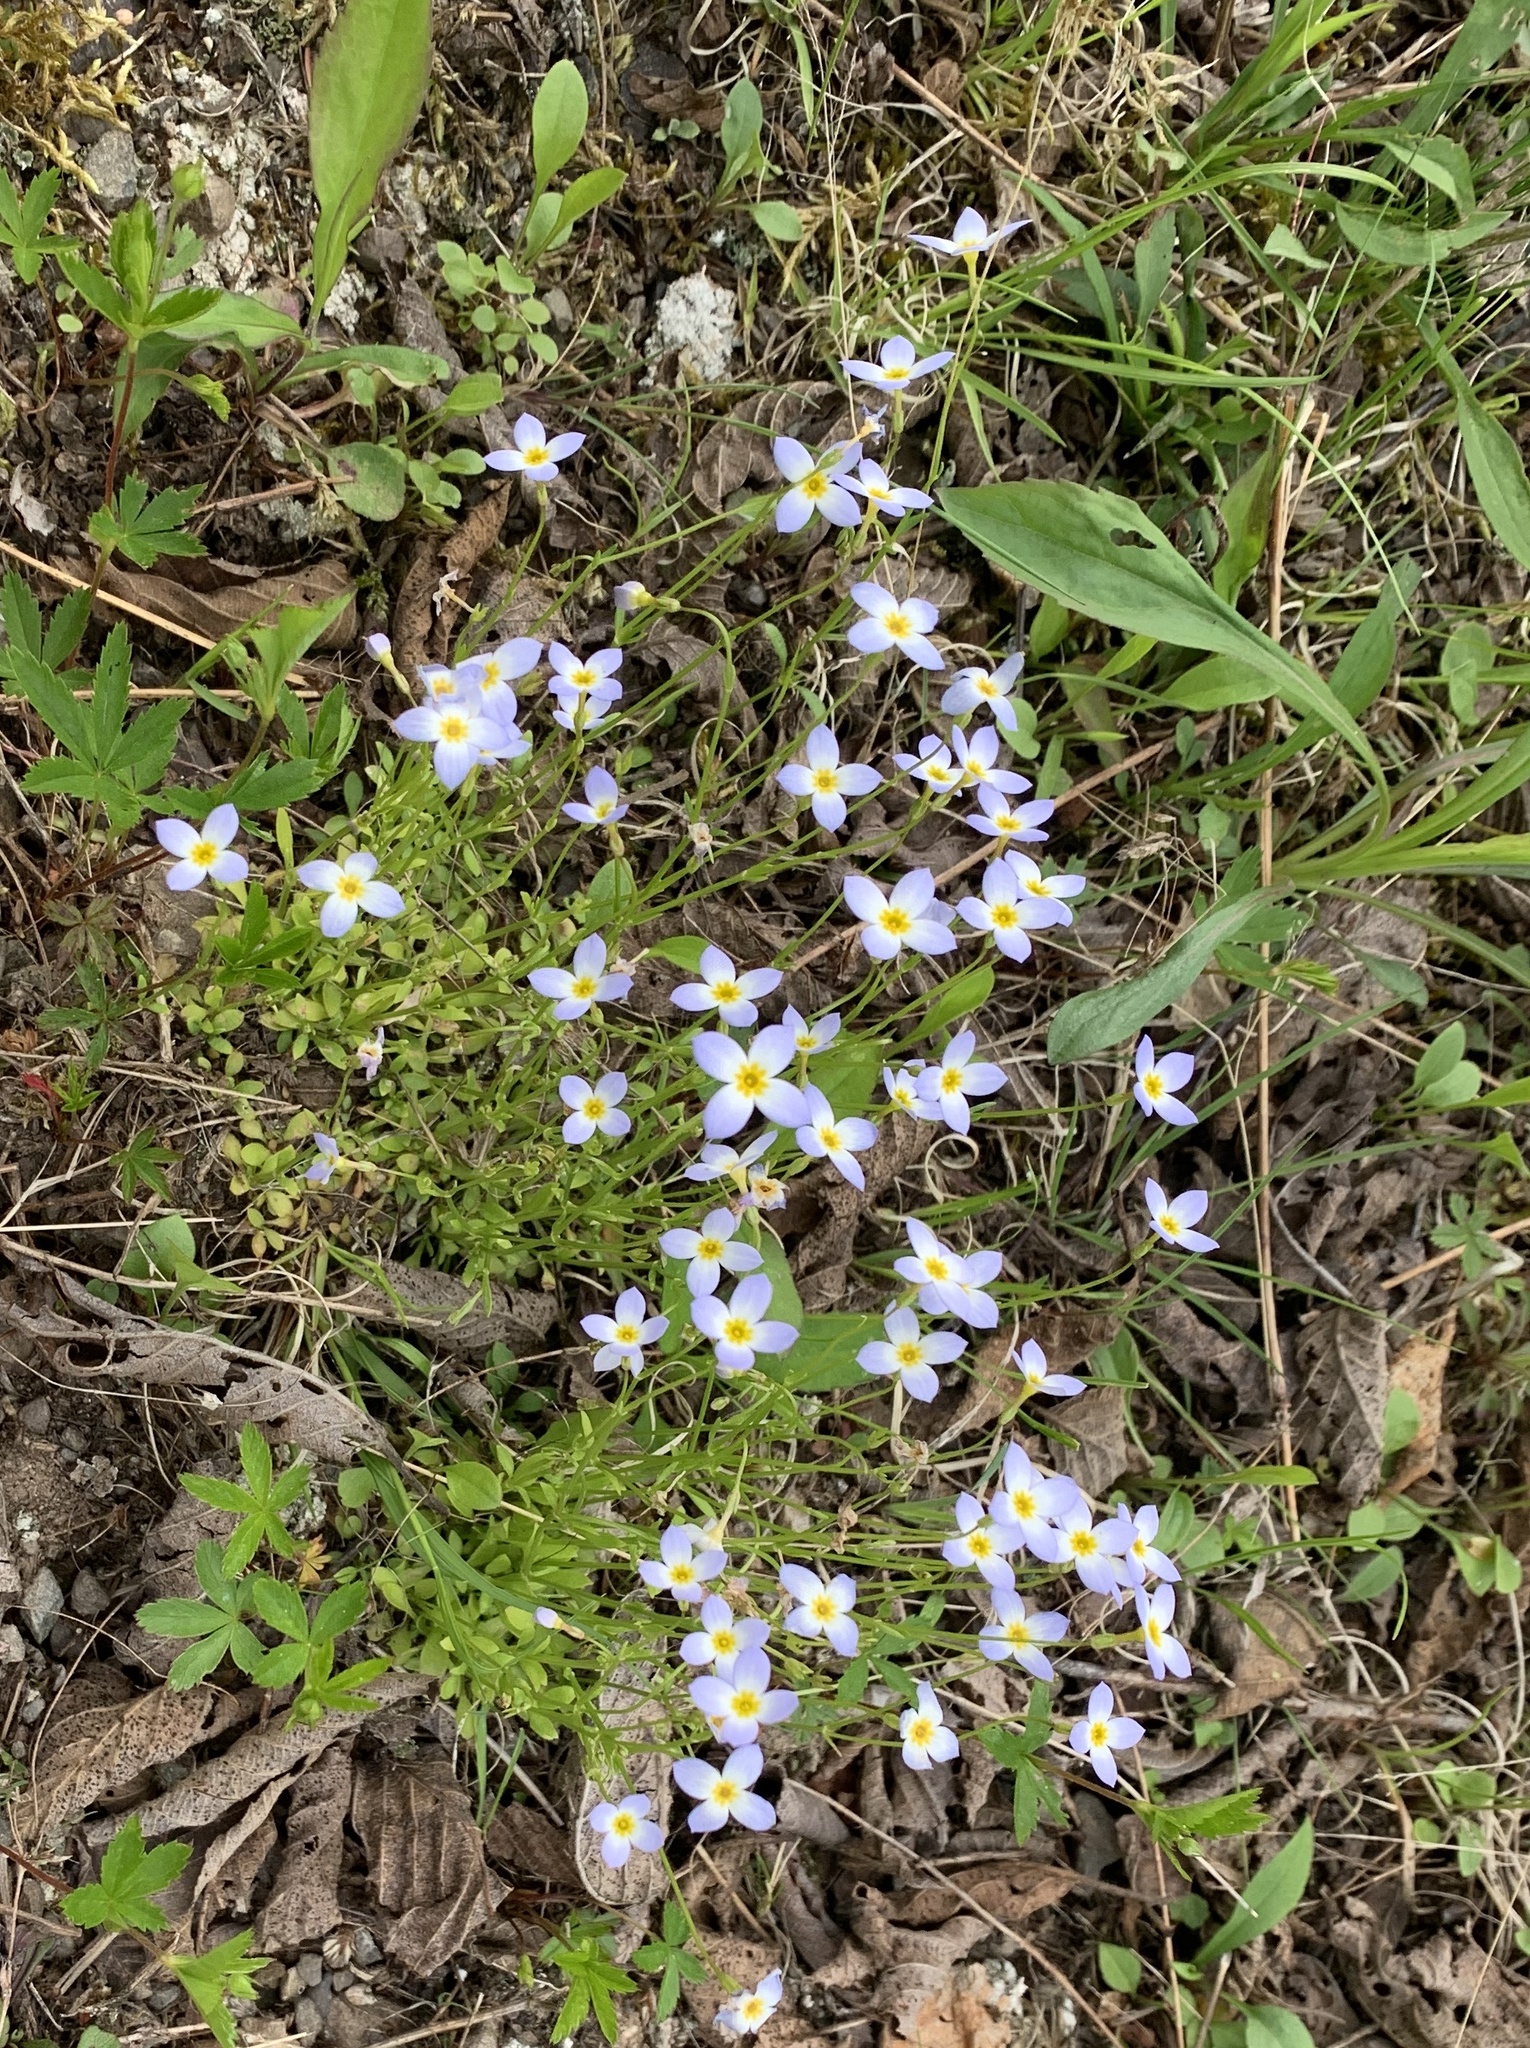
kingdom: Plantae
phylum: Tracheophyta
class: Magnoliopsida
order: Gentianales
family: Rubiaceae
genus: Houstonia
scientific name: Houstonia caerulea
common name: Bluets
